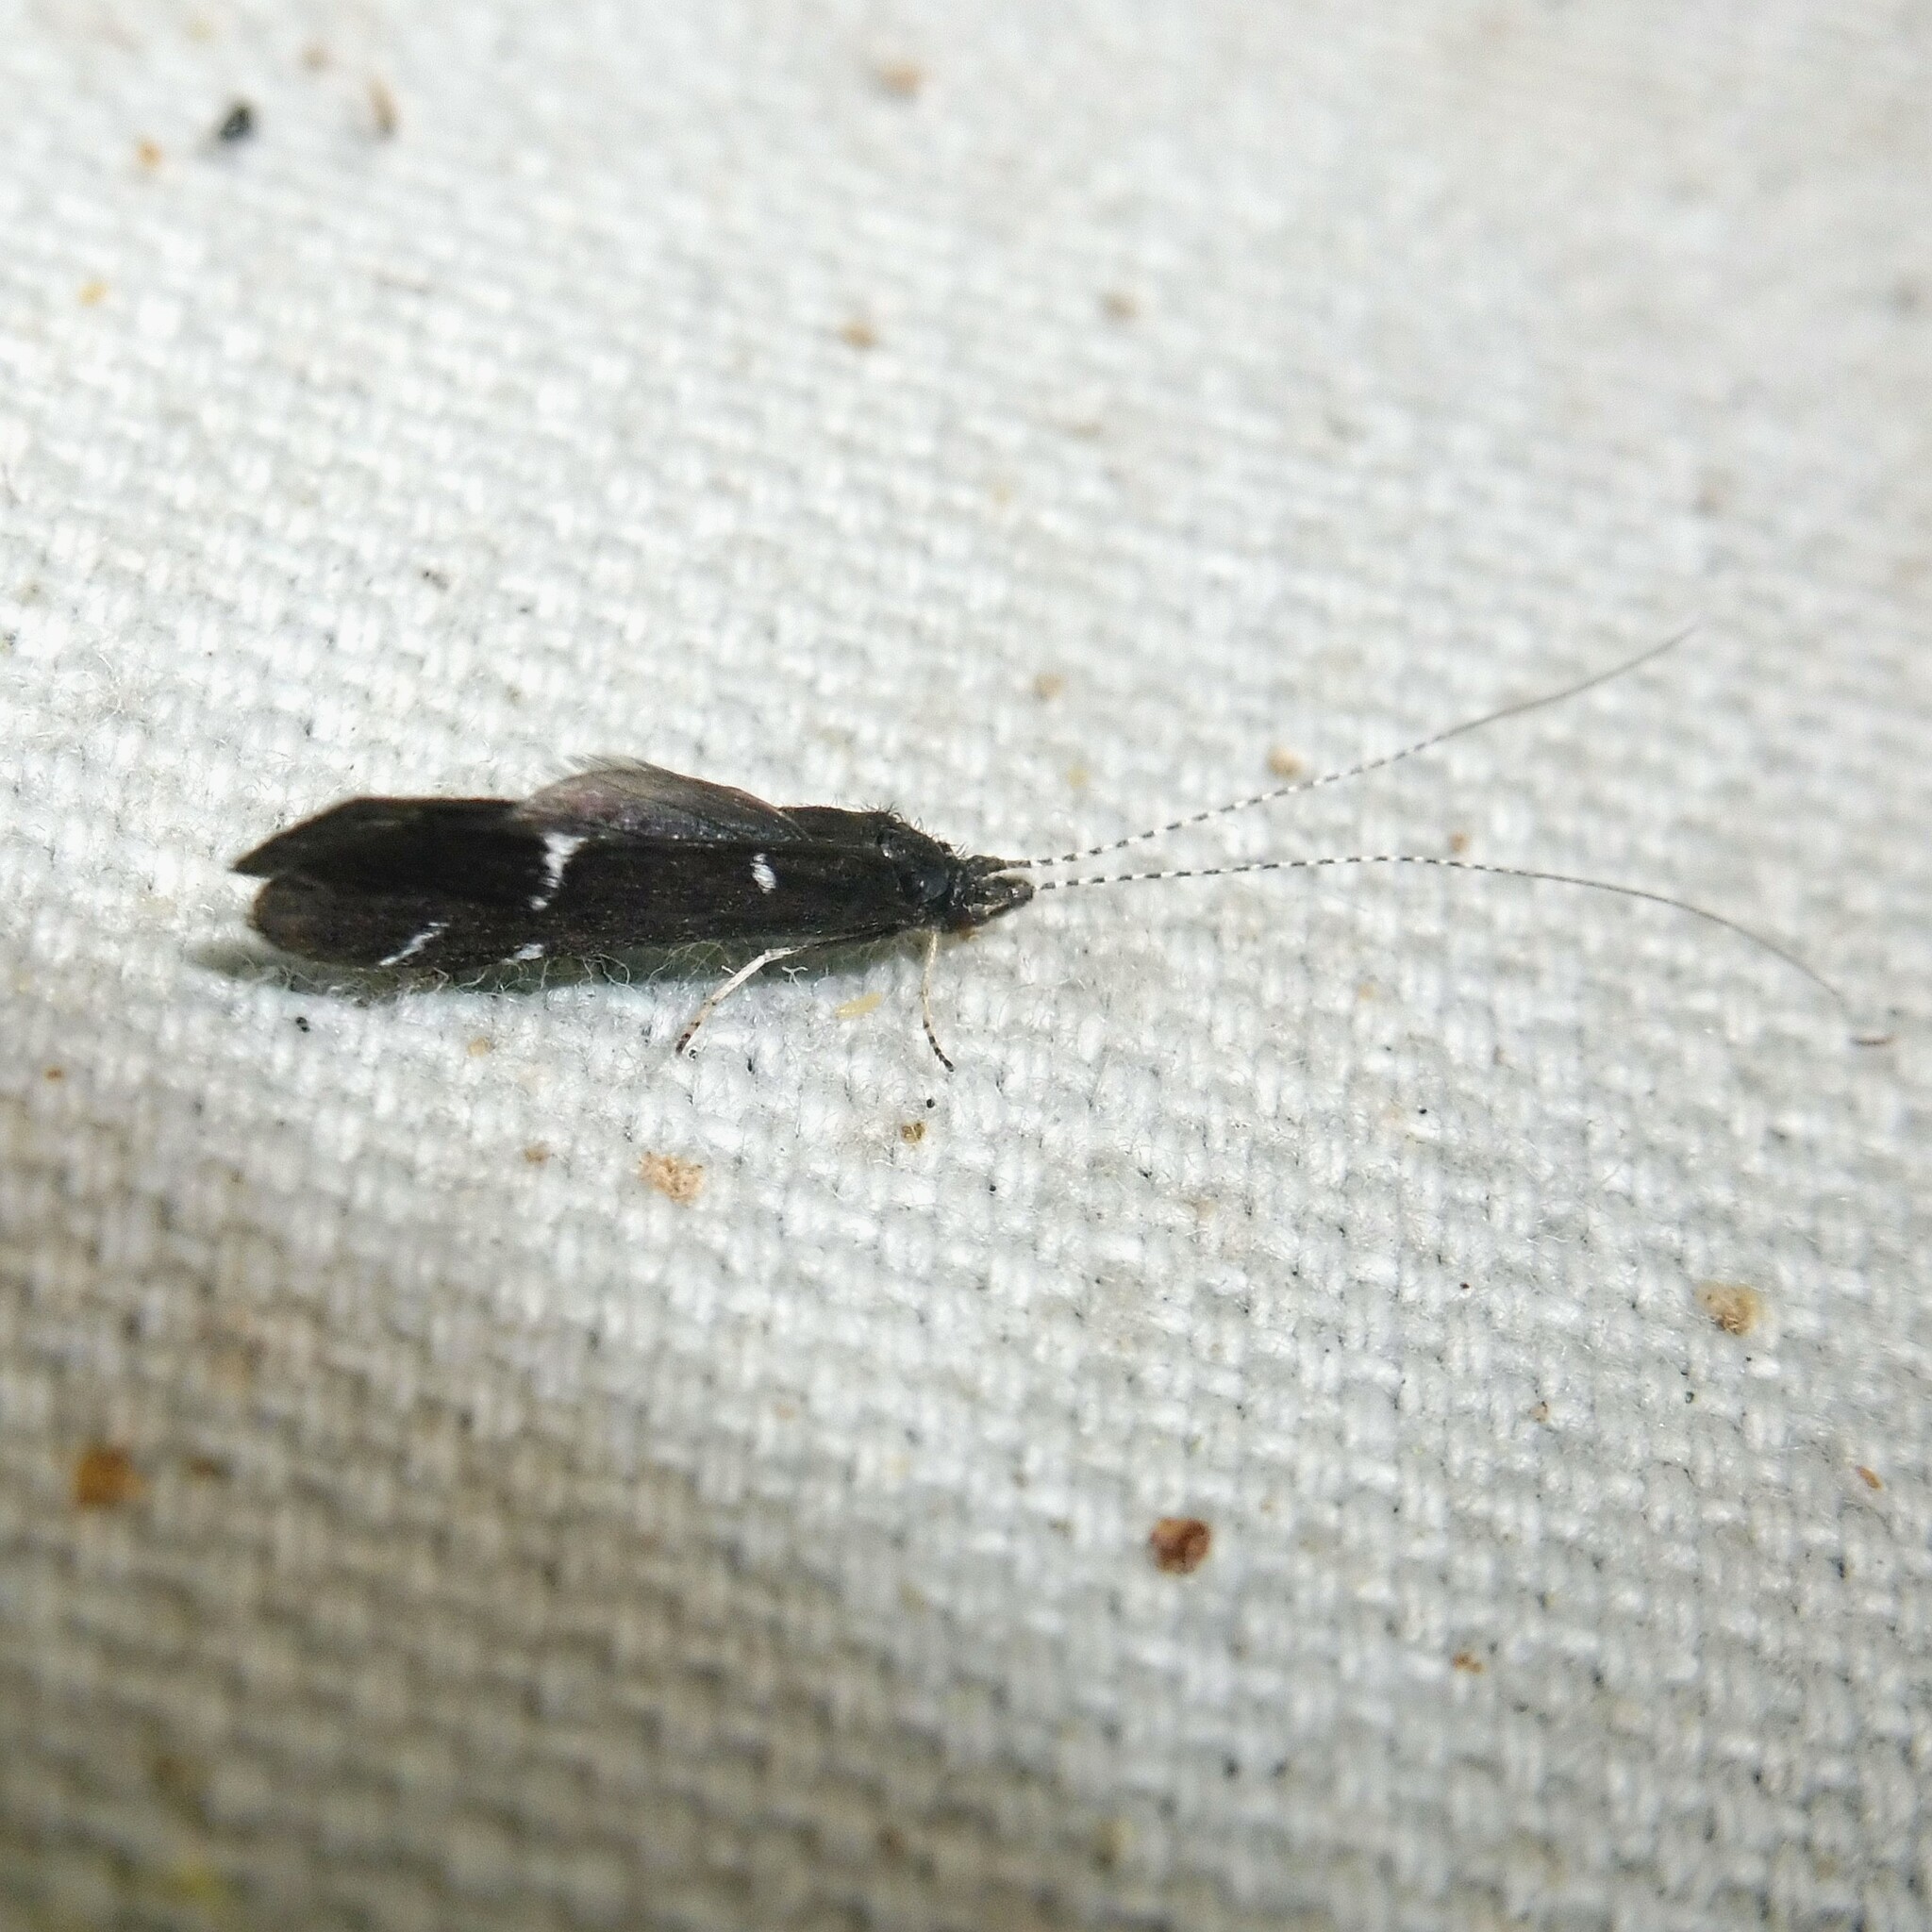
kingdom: Animalia
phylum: Arthropoda
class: Insecta
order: Trichoptera
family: Leptoceridae
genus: Athripsodes
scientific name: Athripsodes bilineatus
